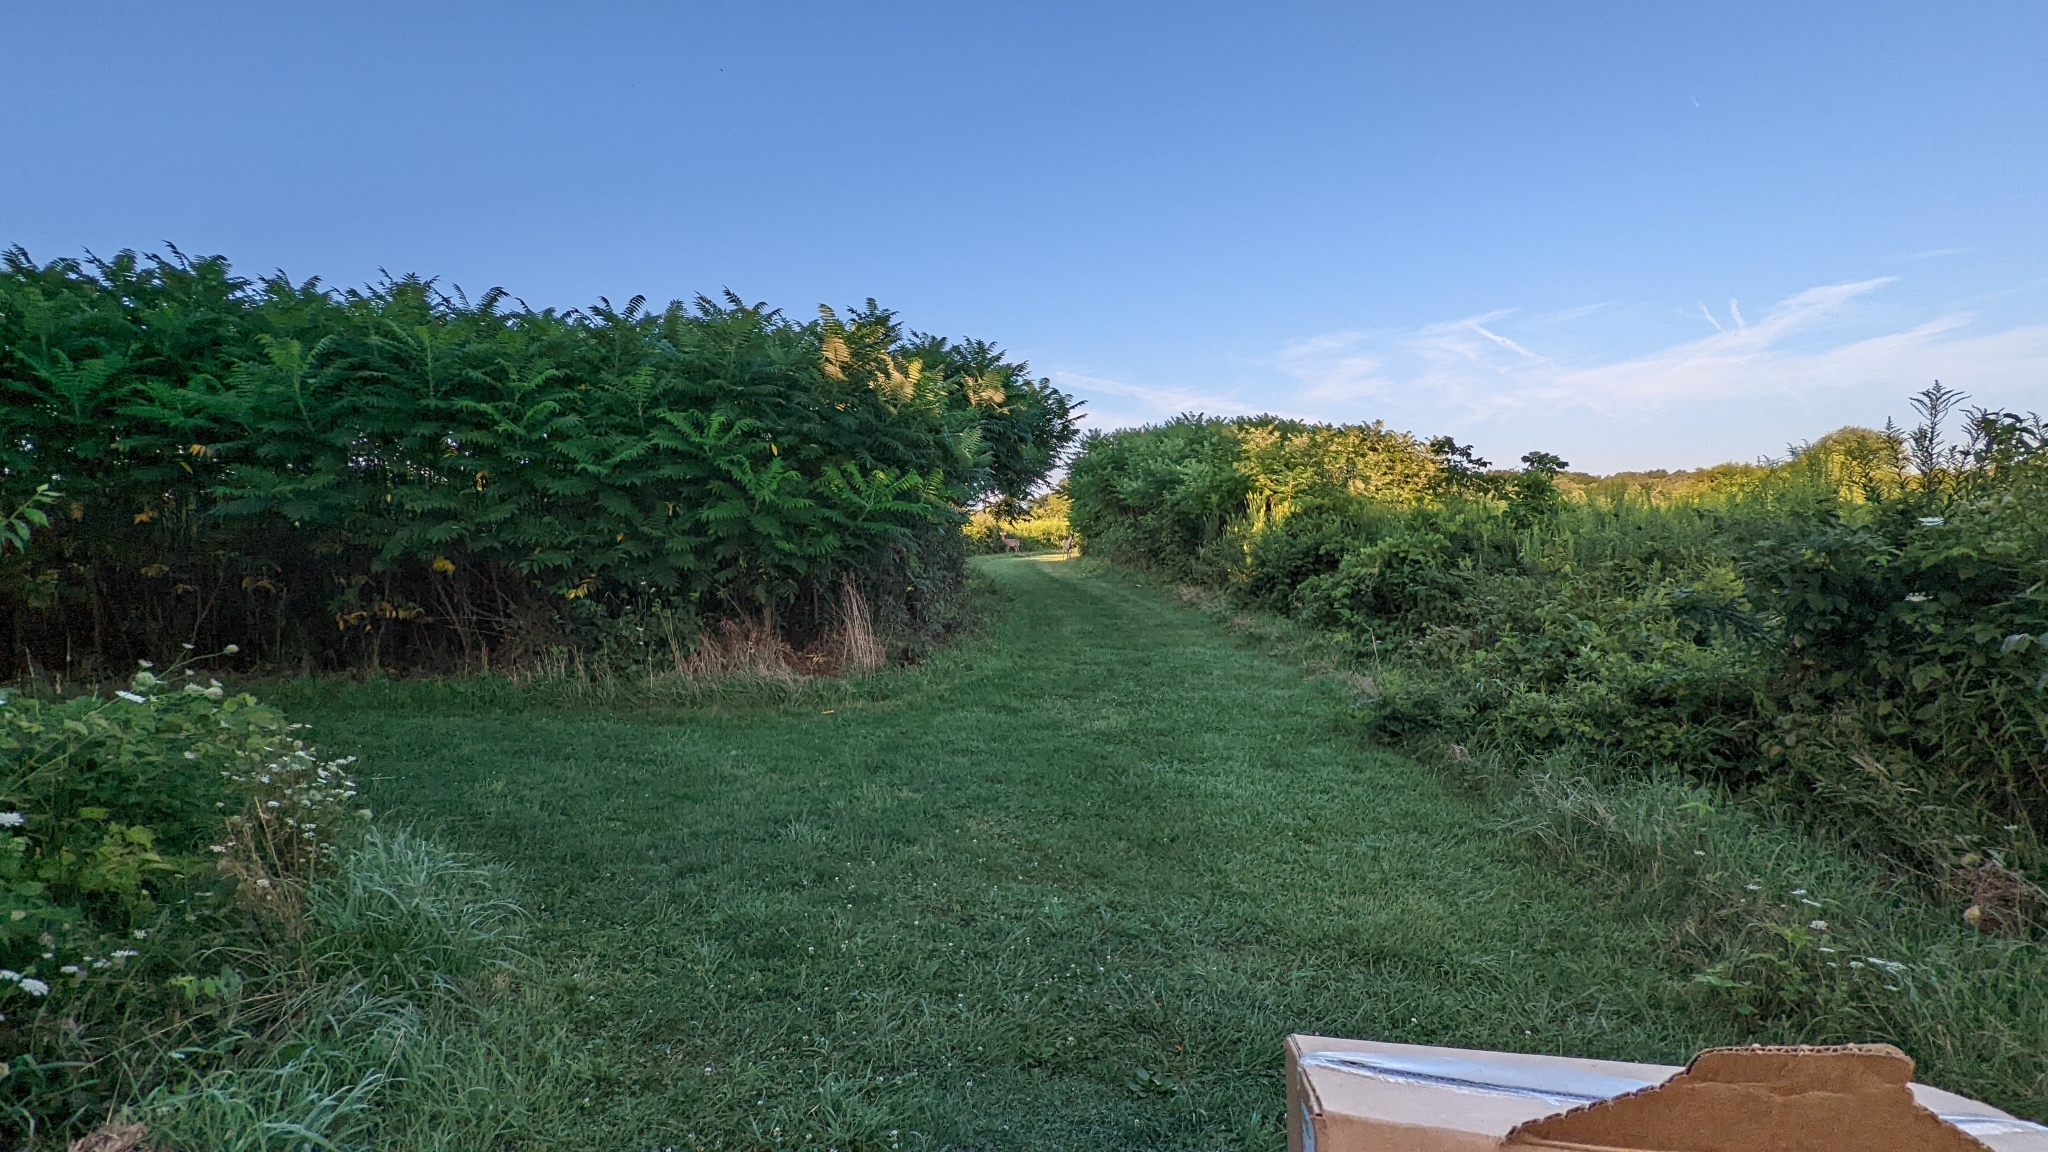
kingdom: Animalia
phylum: Chordata
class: Mammalia
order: Artiodactyla
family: Cervidae
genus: Odocoileus
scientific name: Odocoileus virginianus
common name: White-tailed deer
